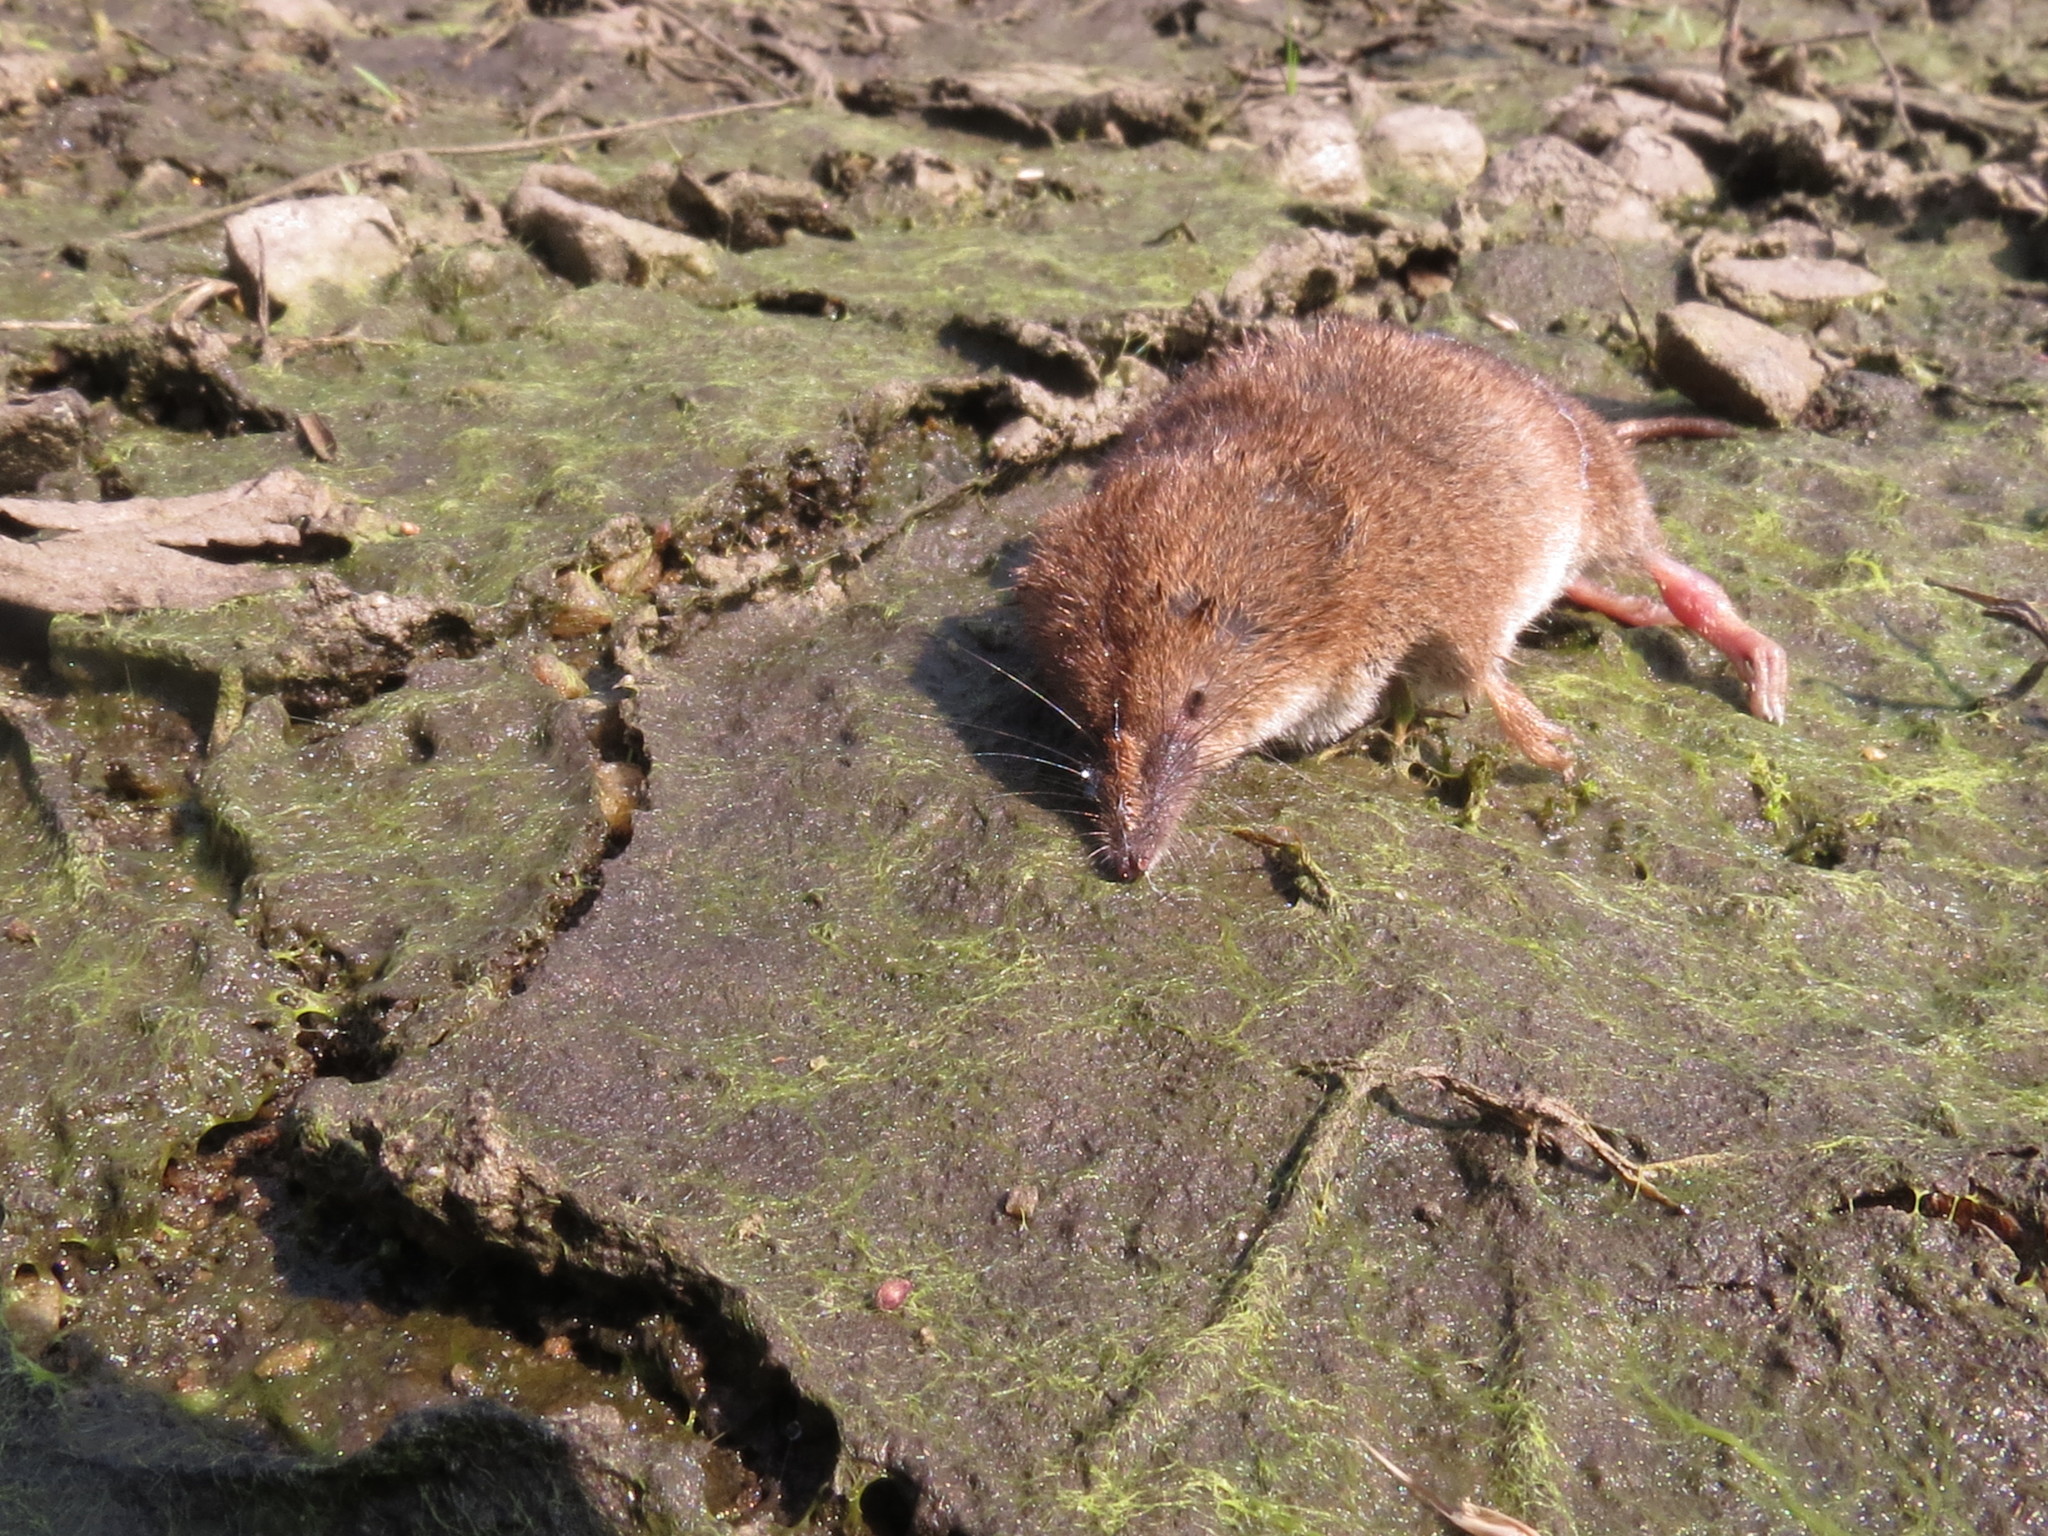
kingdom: Animalia
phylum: Chordata
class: Mammalia
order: Soricomorpha
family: Soricidae
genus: Sorex
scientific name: Sorex cinereus
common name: Cinereus shrew
